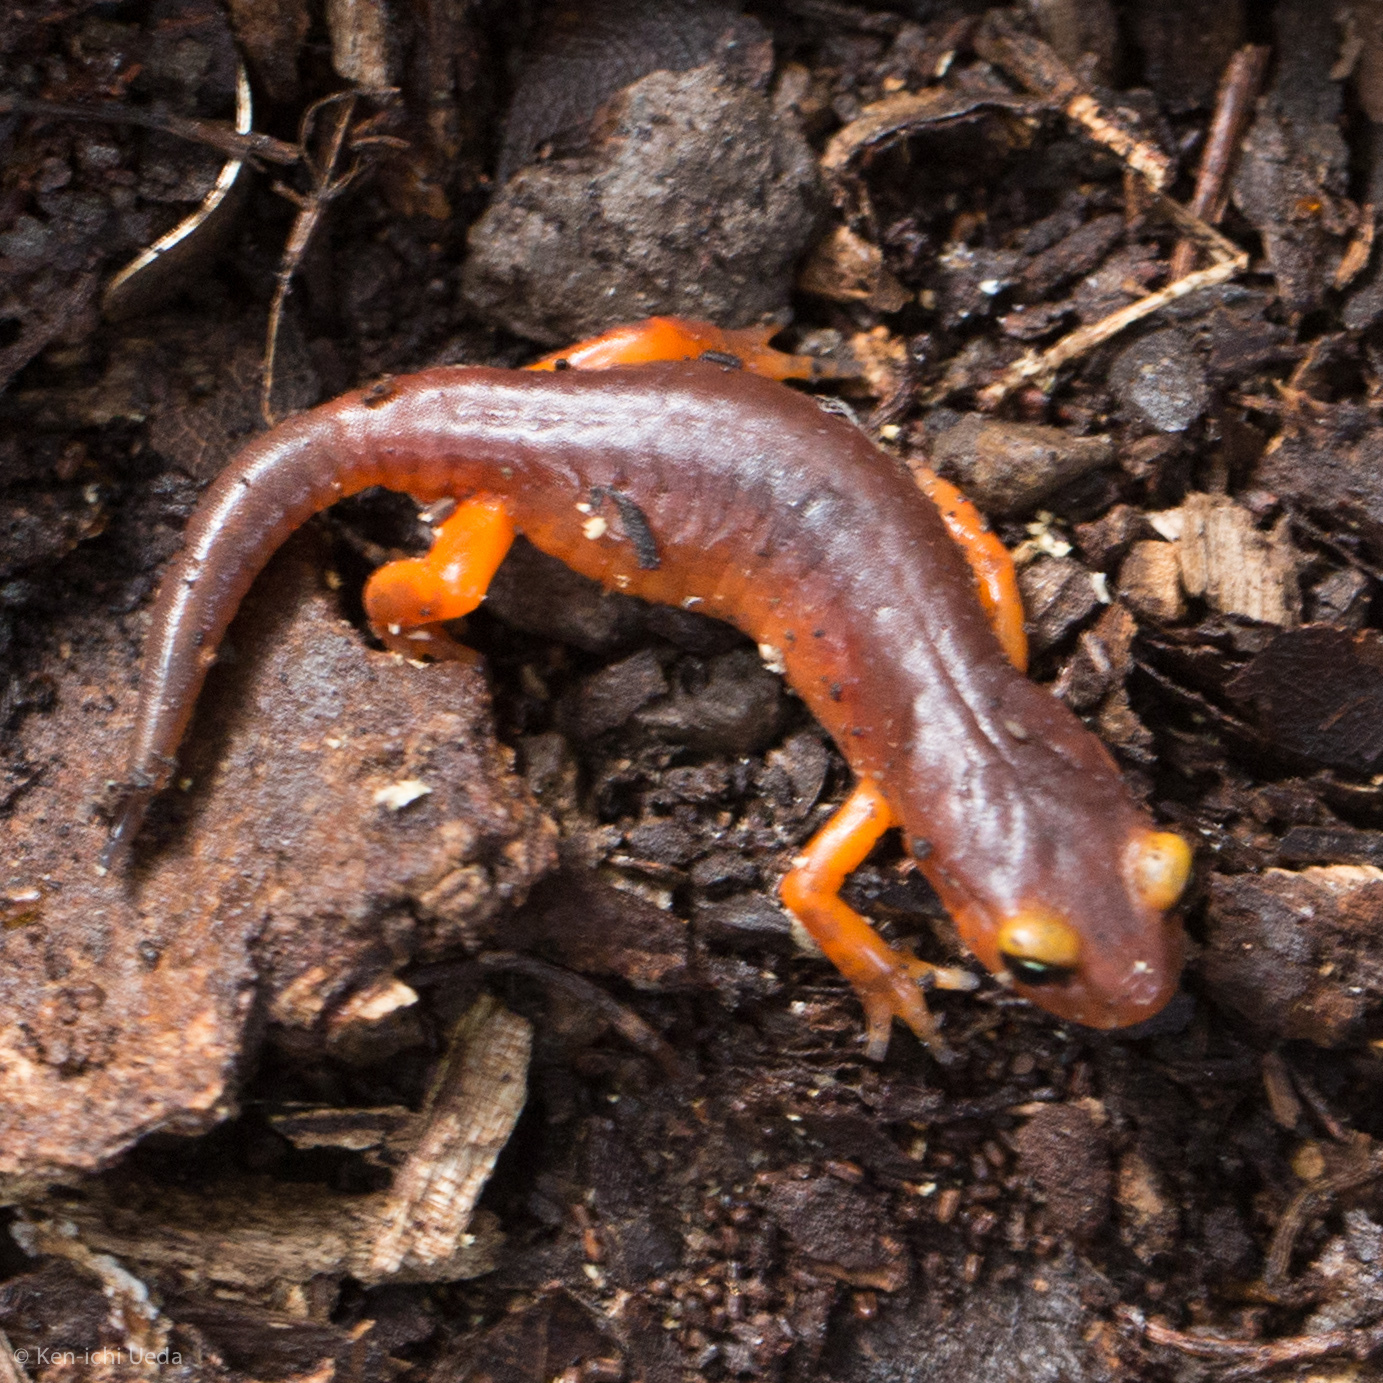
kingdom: Animalia
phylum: Chordata
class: Amphibia
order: Caudata
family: Plethodontidae
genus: Ensatina
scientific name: Ensatina eschscholtzii
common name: Ensatina
